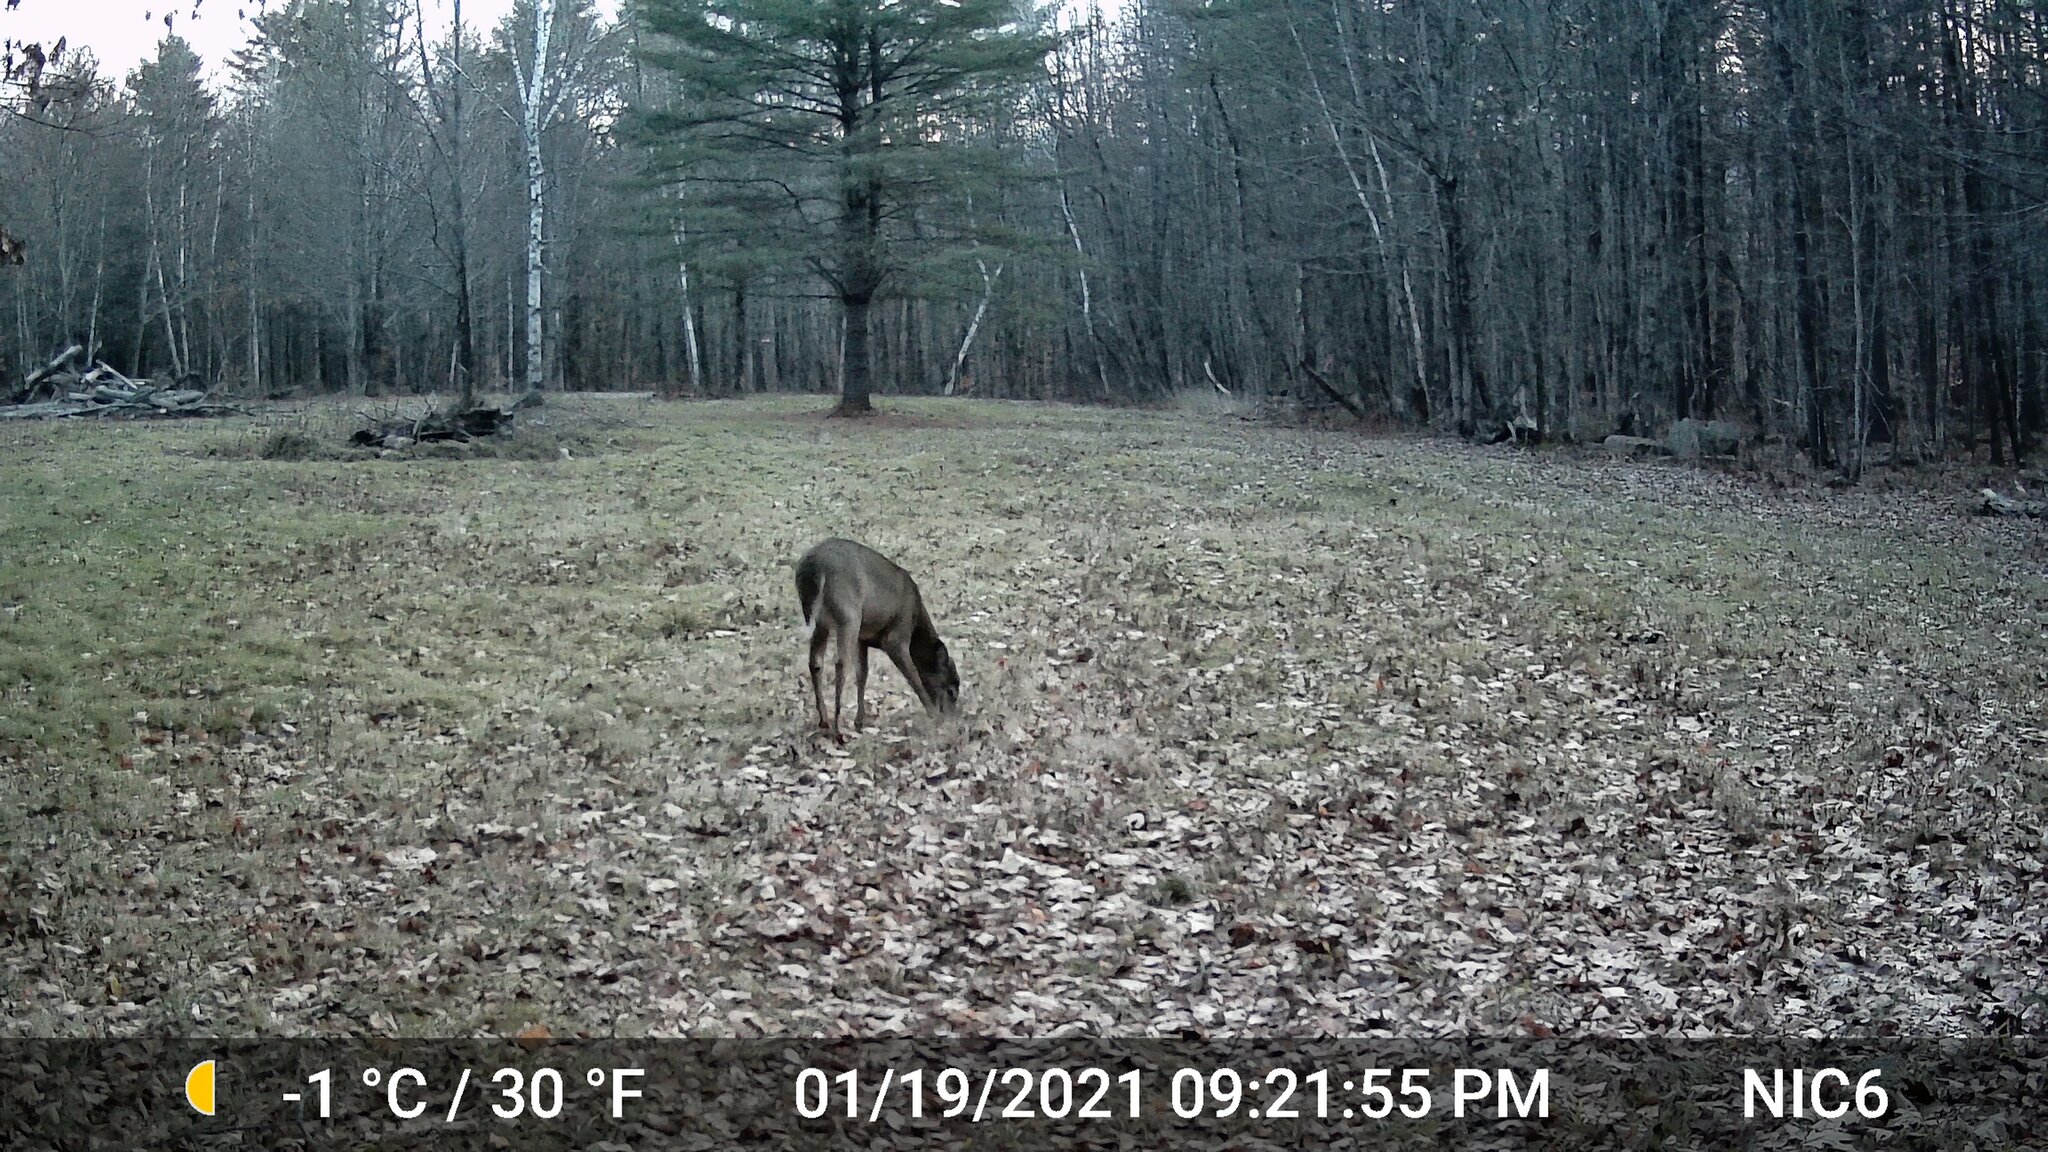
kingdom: Animalia
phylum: Chordata
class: Mammalia
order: Artiodactyla
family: Cervidae
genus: Odocoileus
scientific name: Odocoileus virginianus
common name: White-tailed deer
